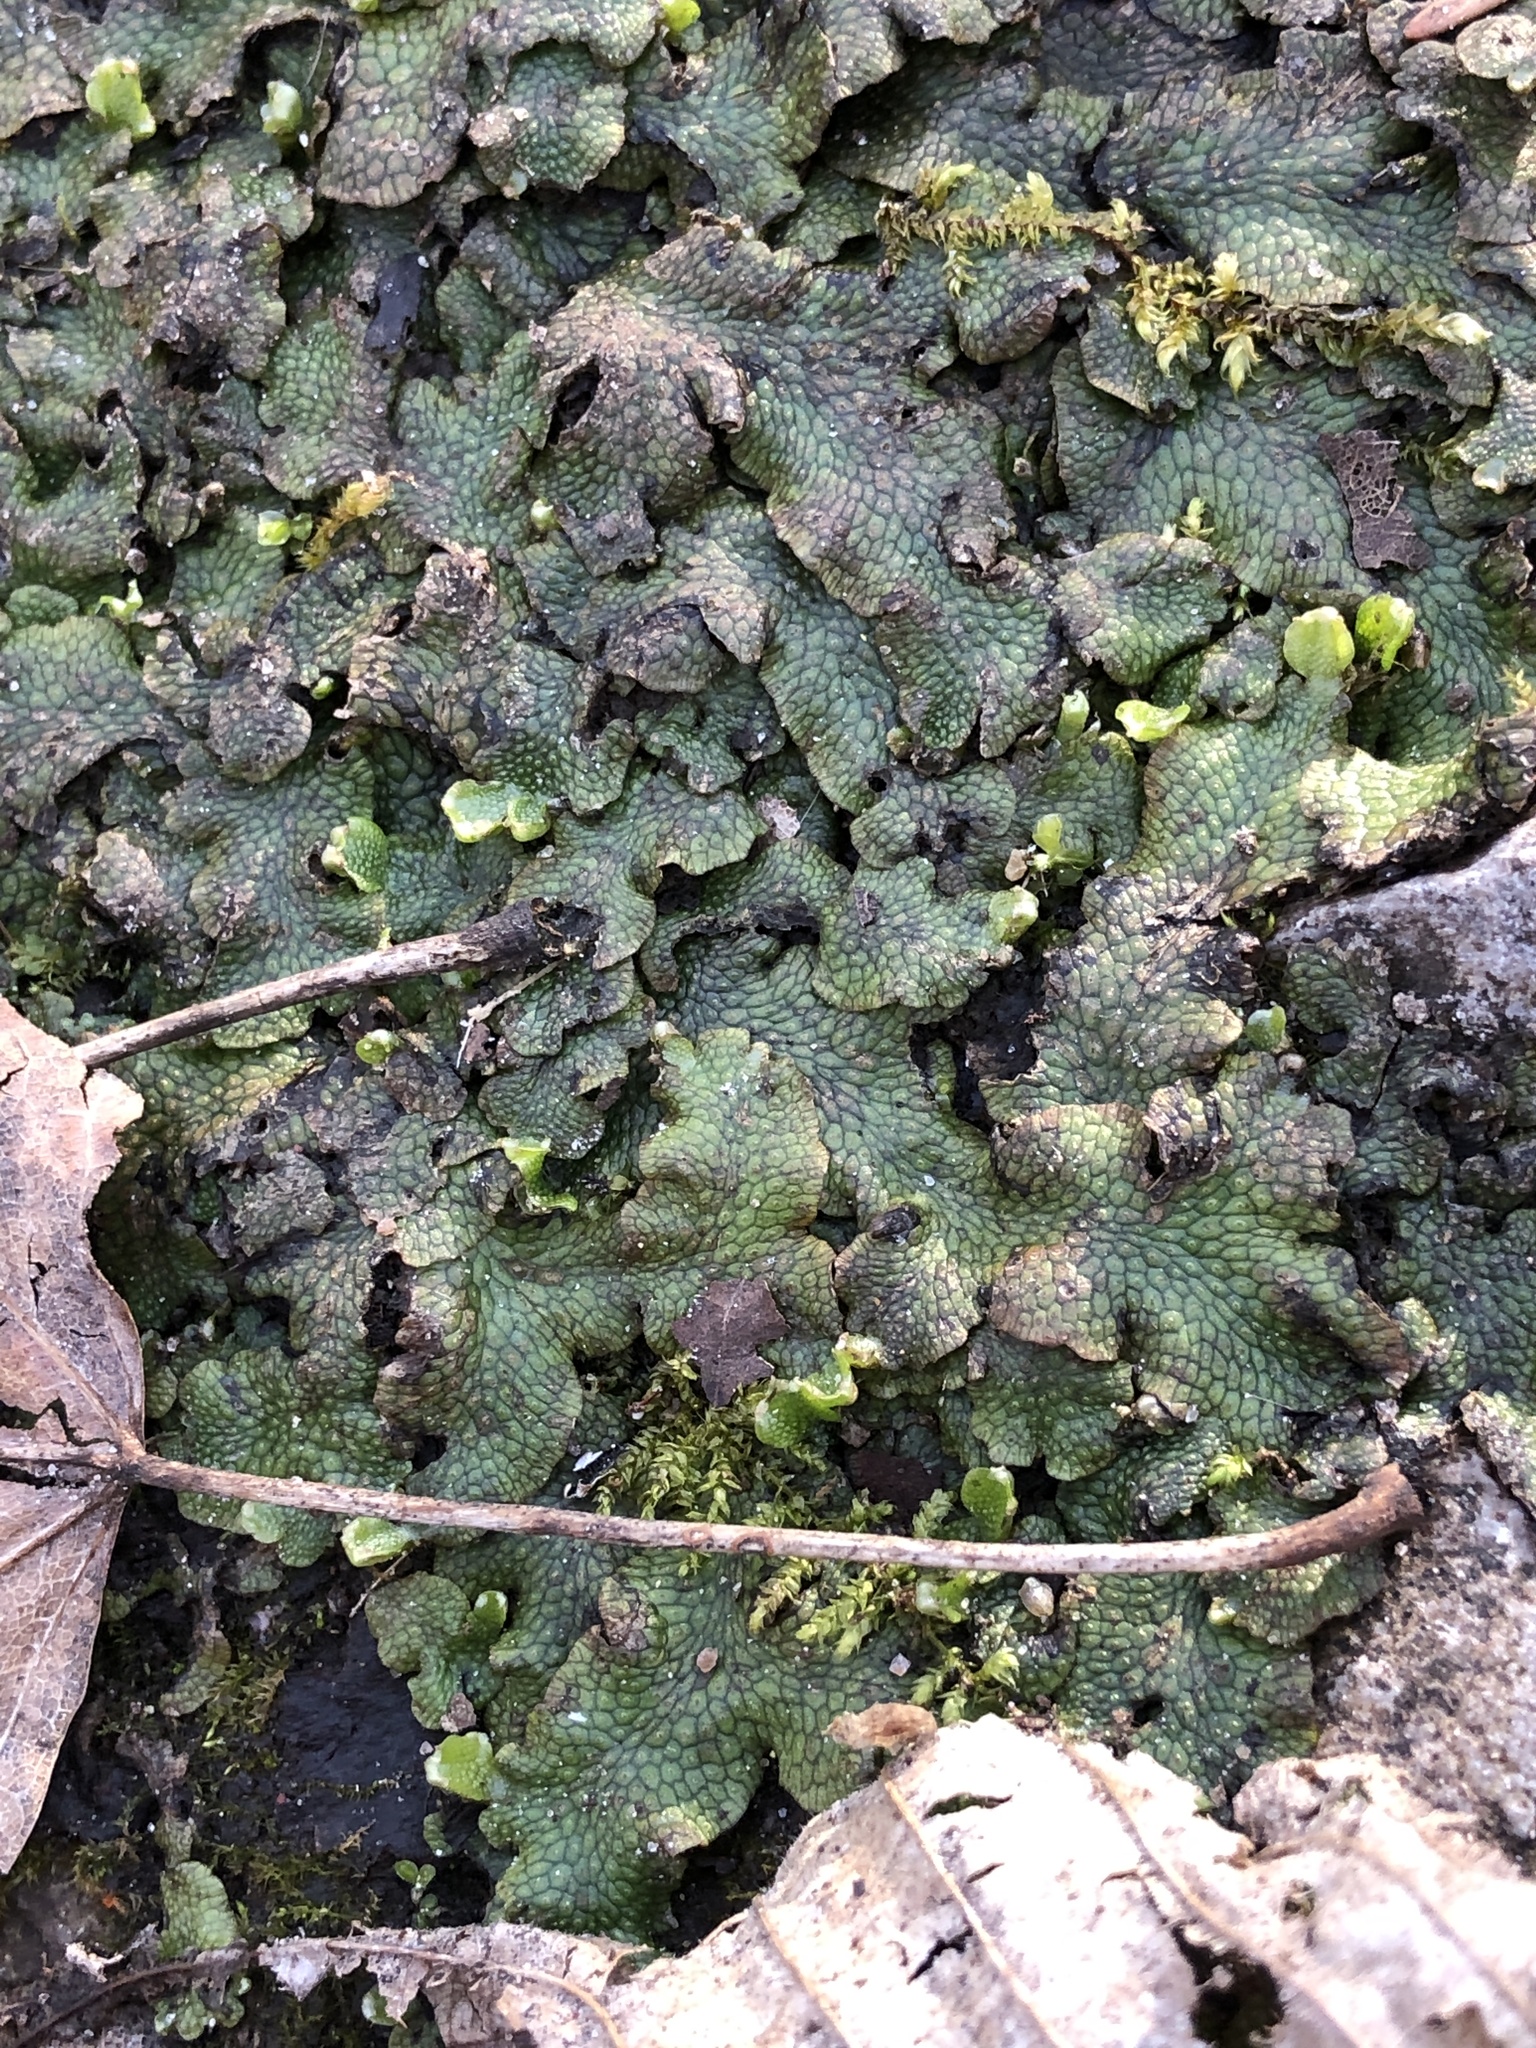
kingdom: Plantae
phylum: Marchantiophyta
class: Marchantiopsida
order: Marchantiales
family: Conocephalaceae
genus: Conocephalum
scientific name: Conocephalum salebrosum
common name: Cat-tongue liverwort
